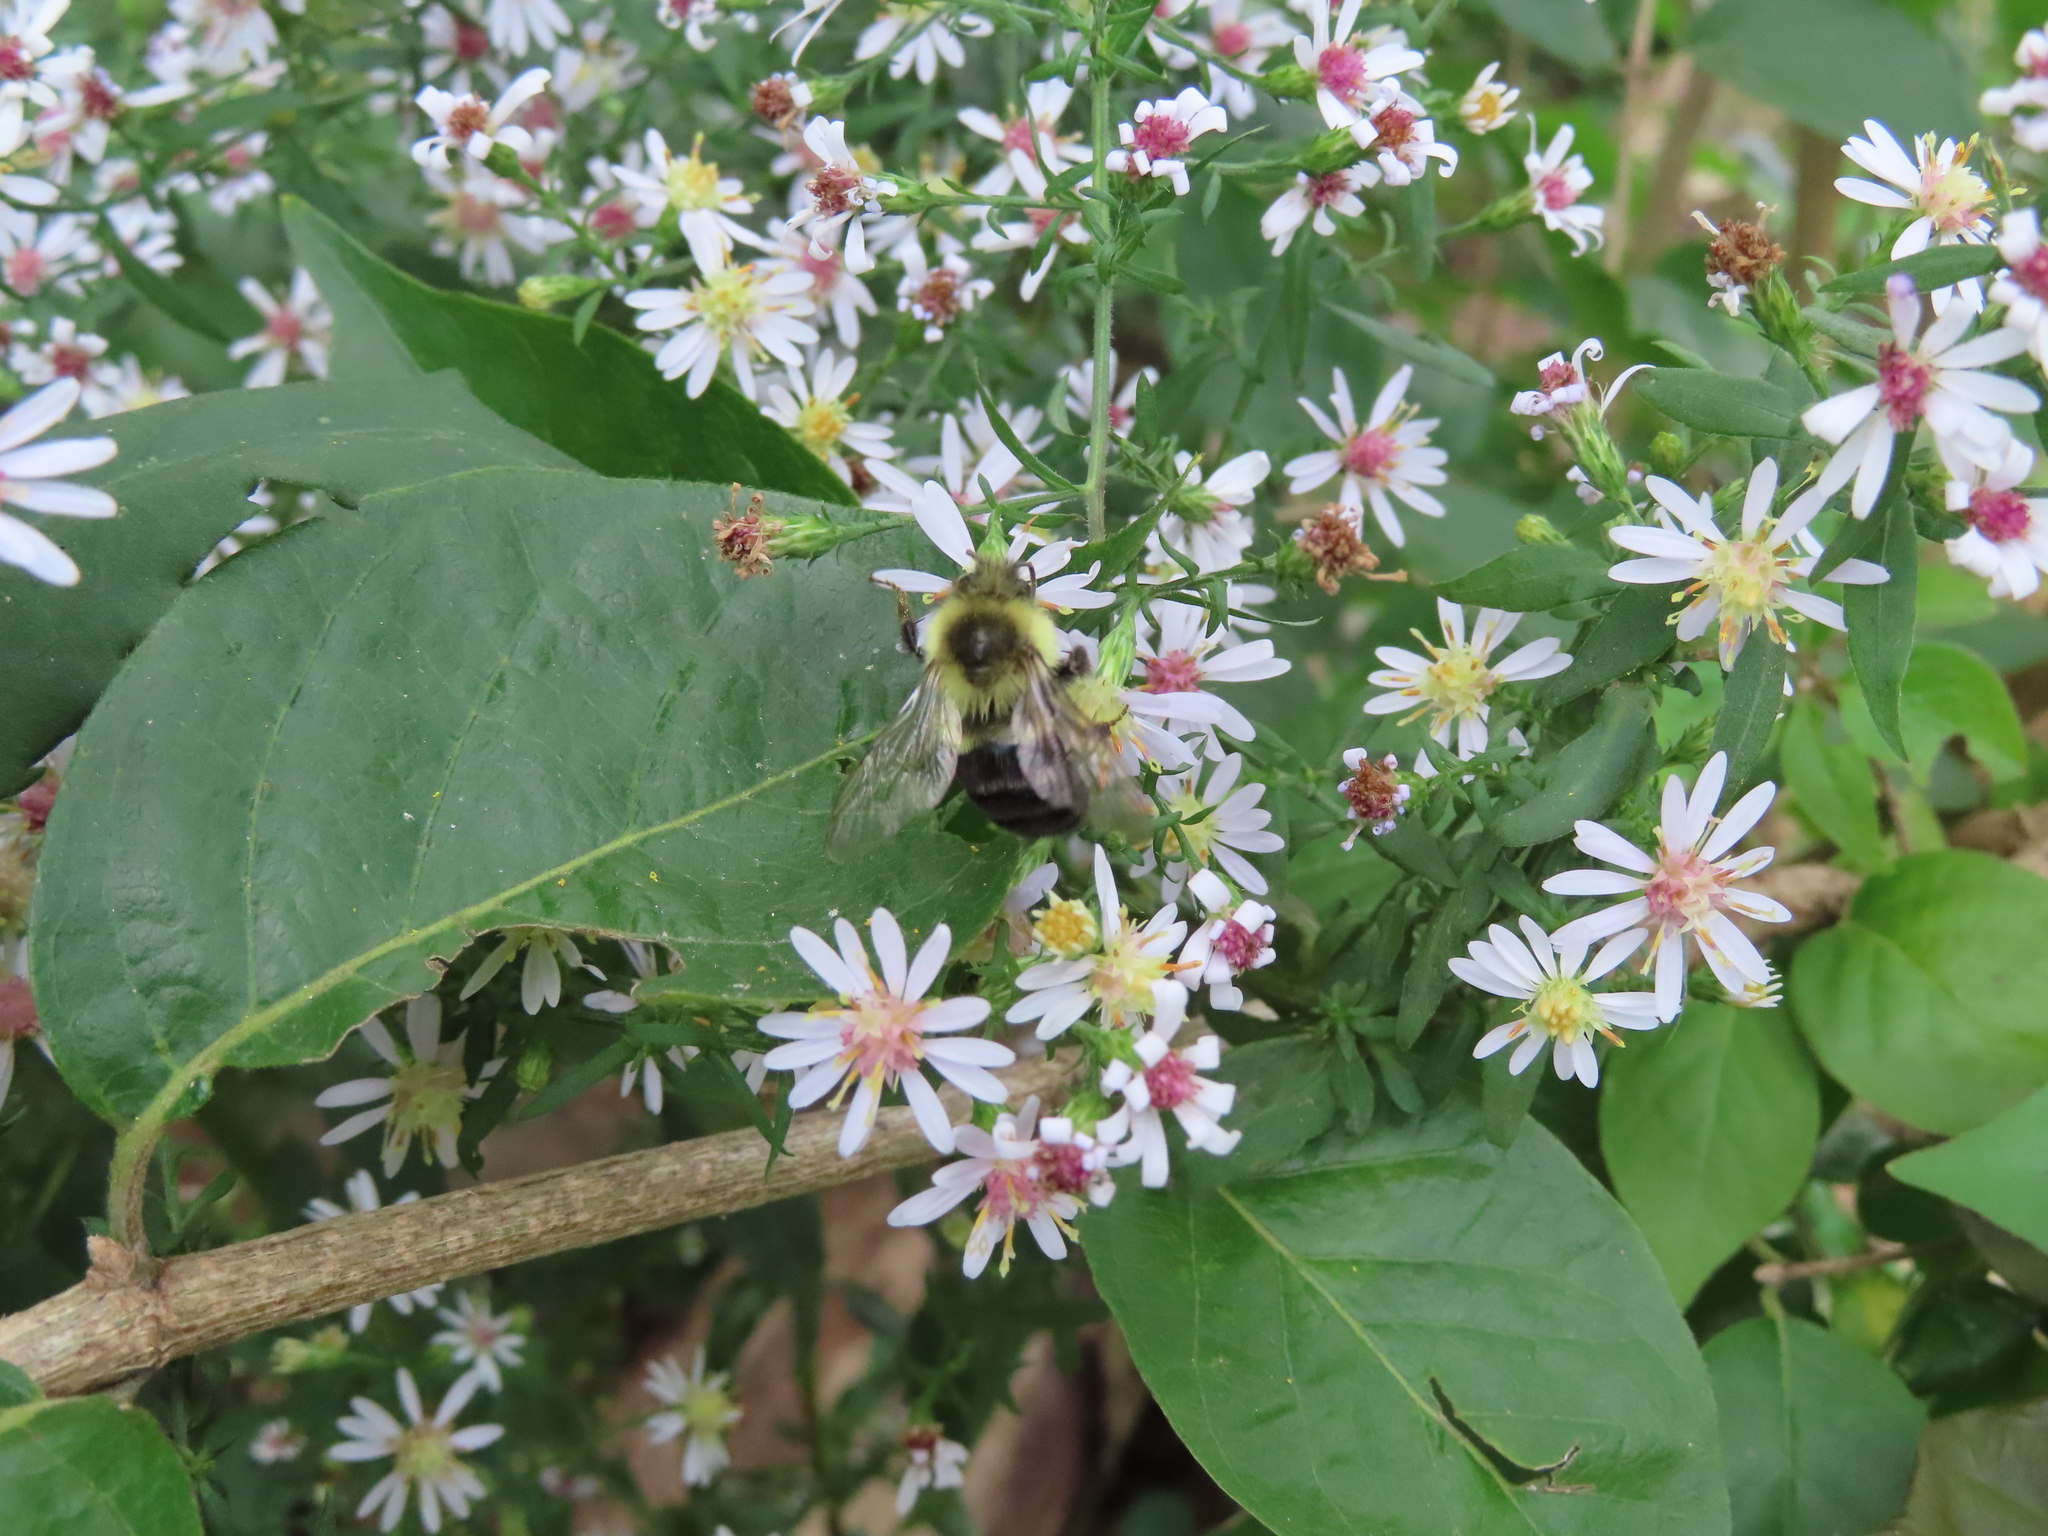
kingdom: Animalia
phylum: Arthropoda
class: Insecta
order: Hymenoptera
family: Apidae
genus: Bombus
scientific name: Bombus impatiens
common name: Common eastern bumble bee
